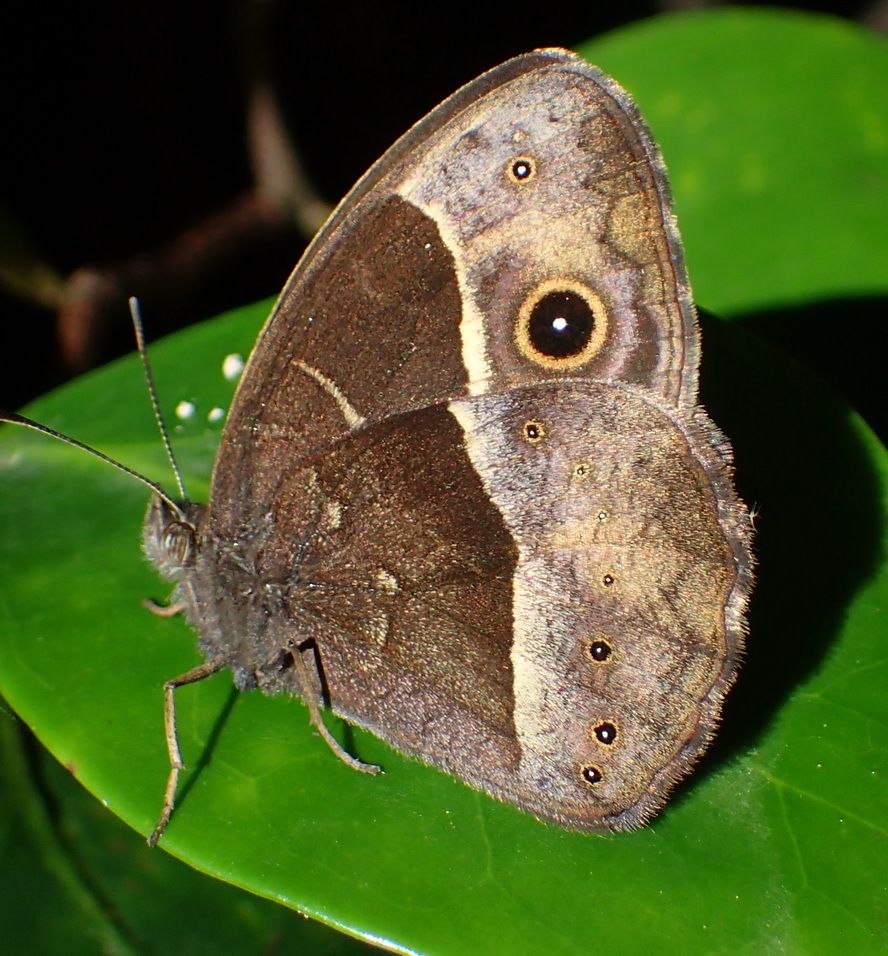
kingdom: Animalia
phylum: Arthropoda
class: Insecta
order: Lepidoptera
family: Nymphalidae
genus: Mycalesis
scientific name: Mycalesis rhacotis
